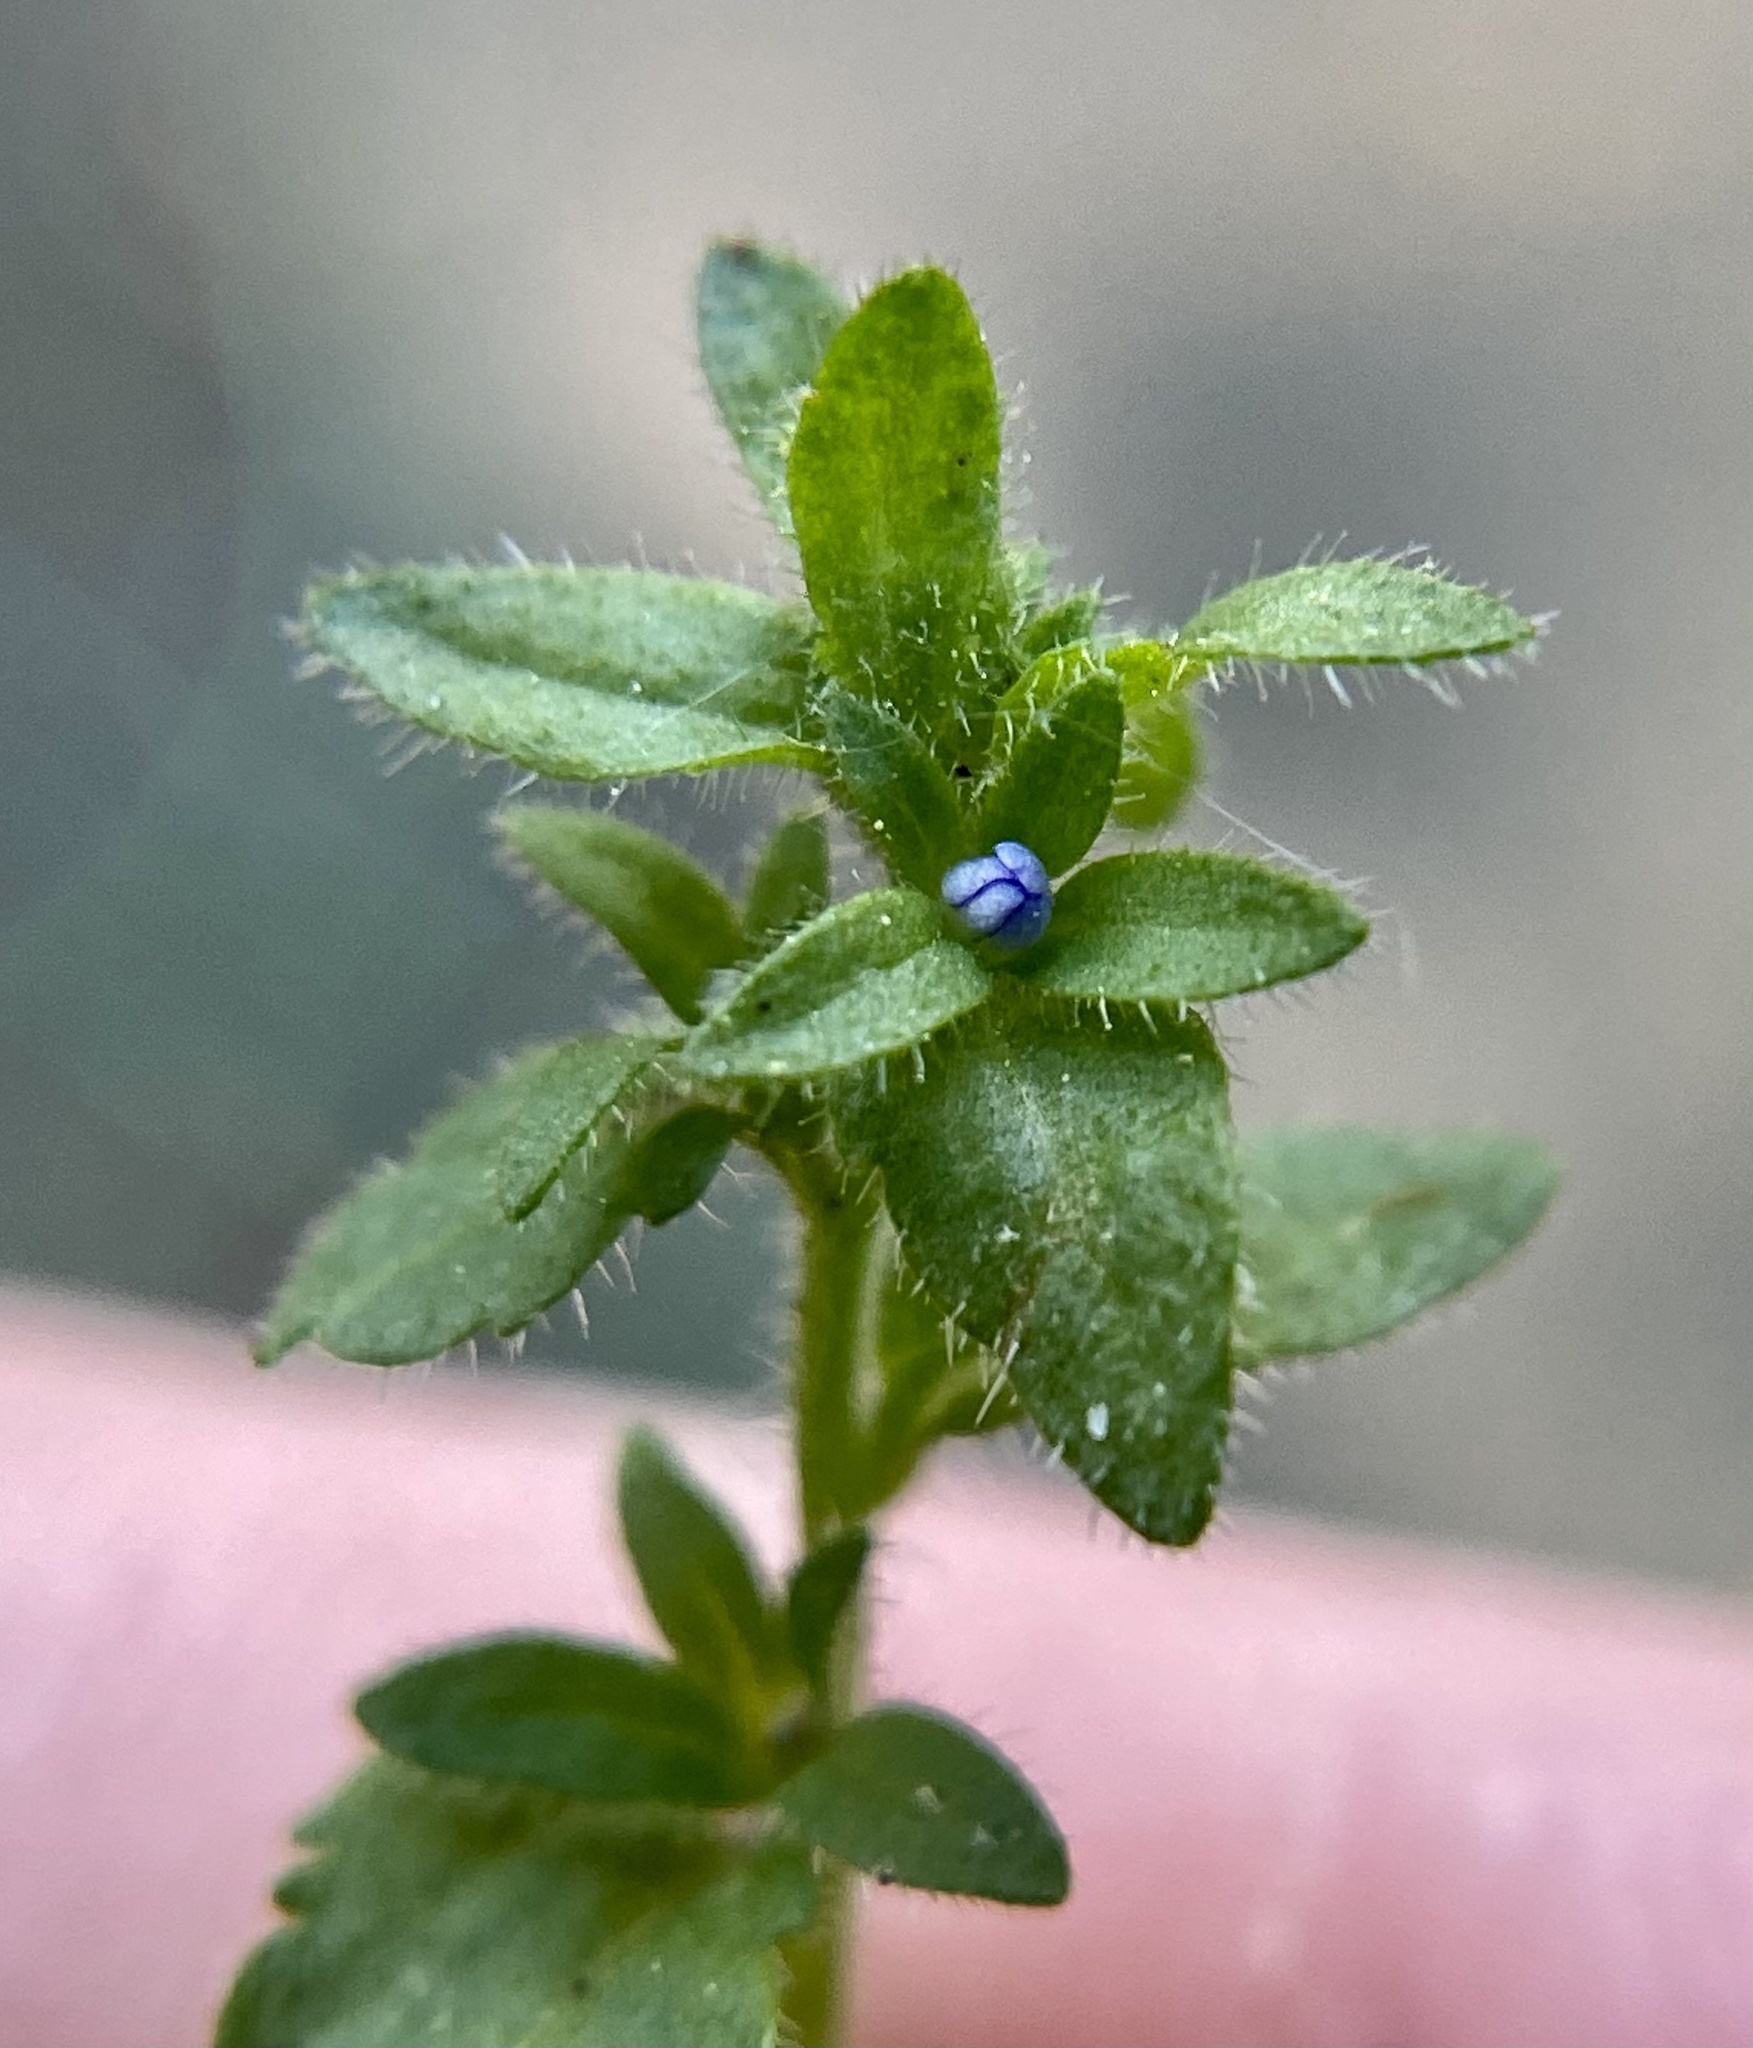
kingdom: Plantae
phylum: Tracheophyta
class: Magnoliopsida
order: Lamiales
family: Plantaginaceae
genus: Veronica
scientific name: Veronica arvensis
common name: Corn speedwell
